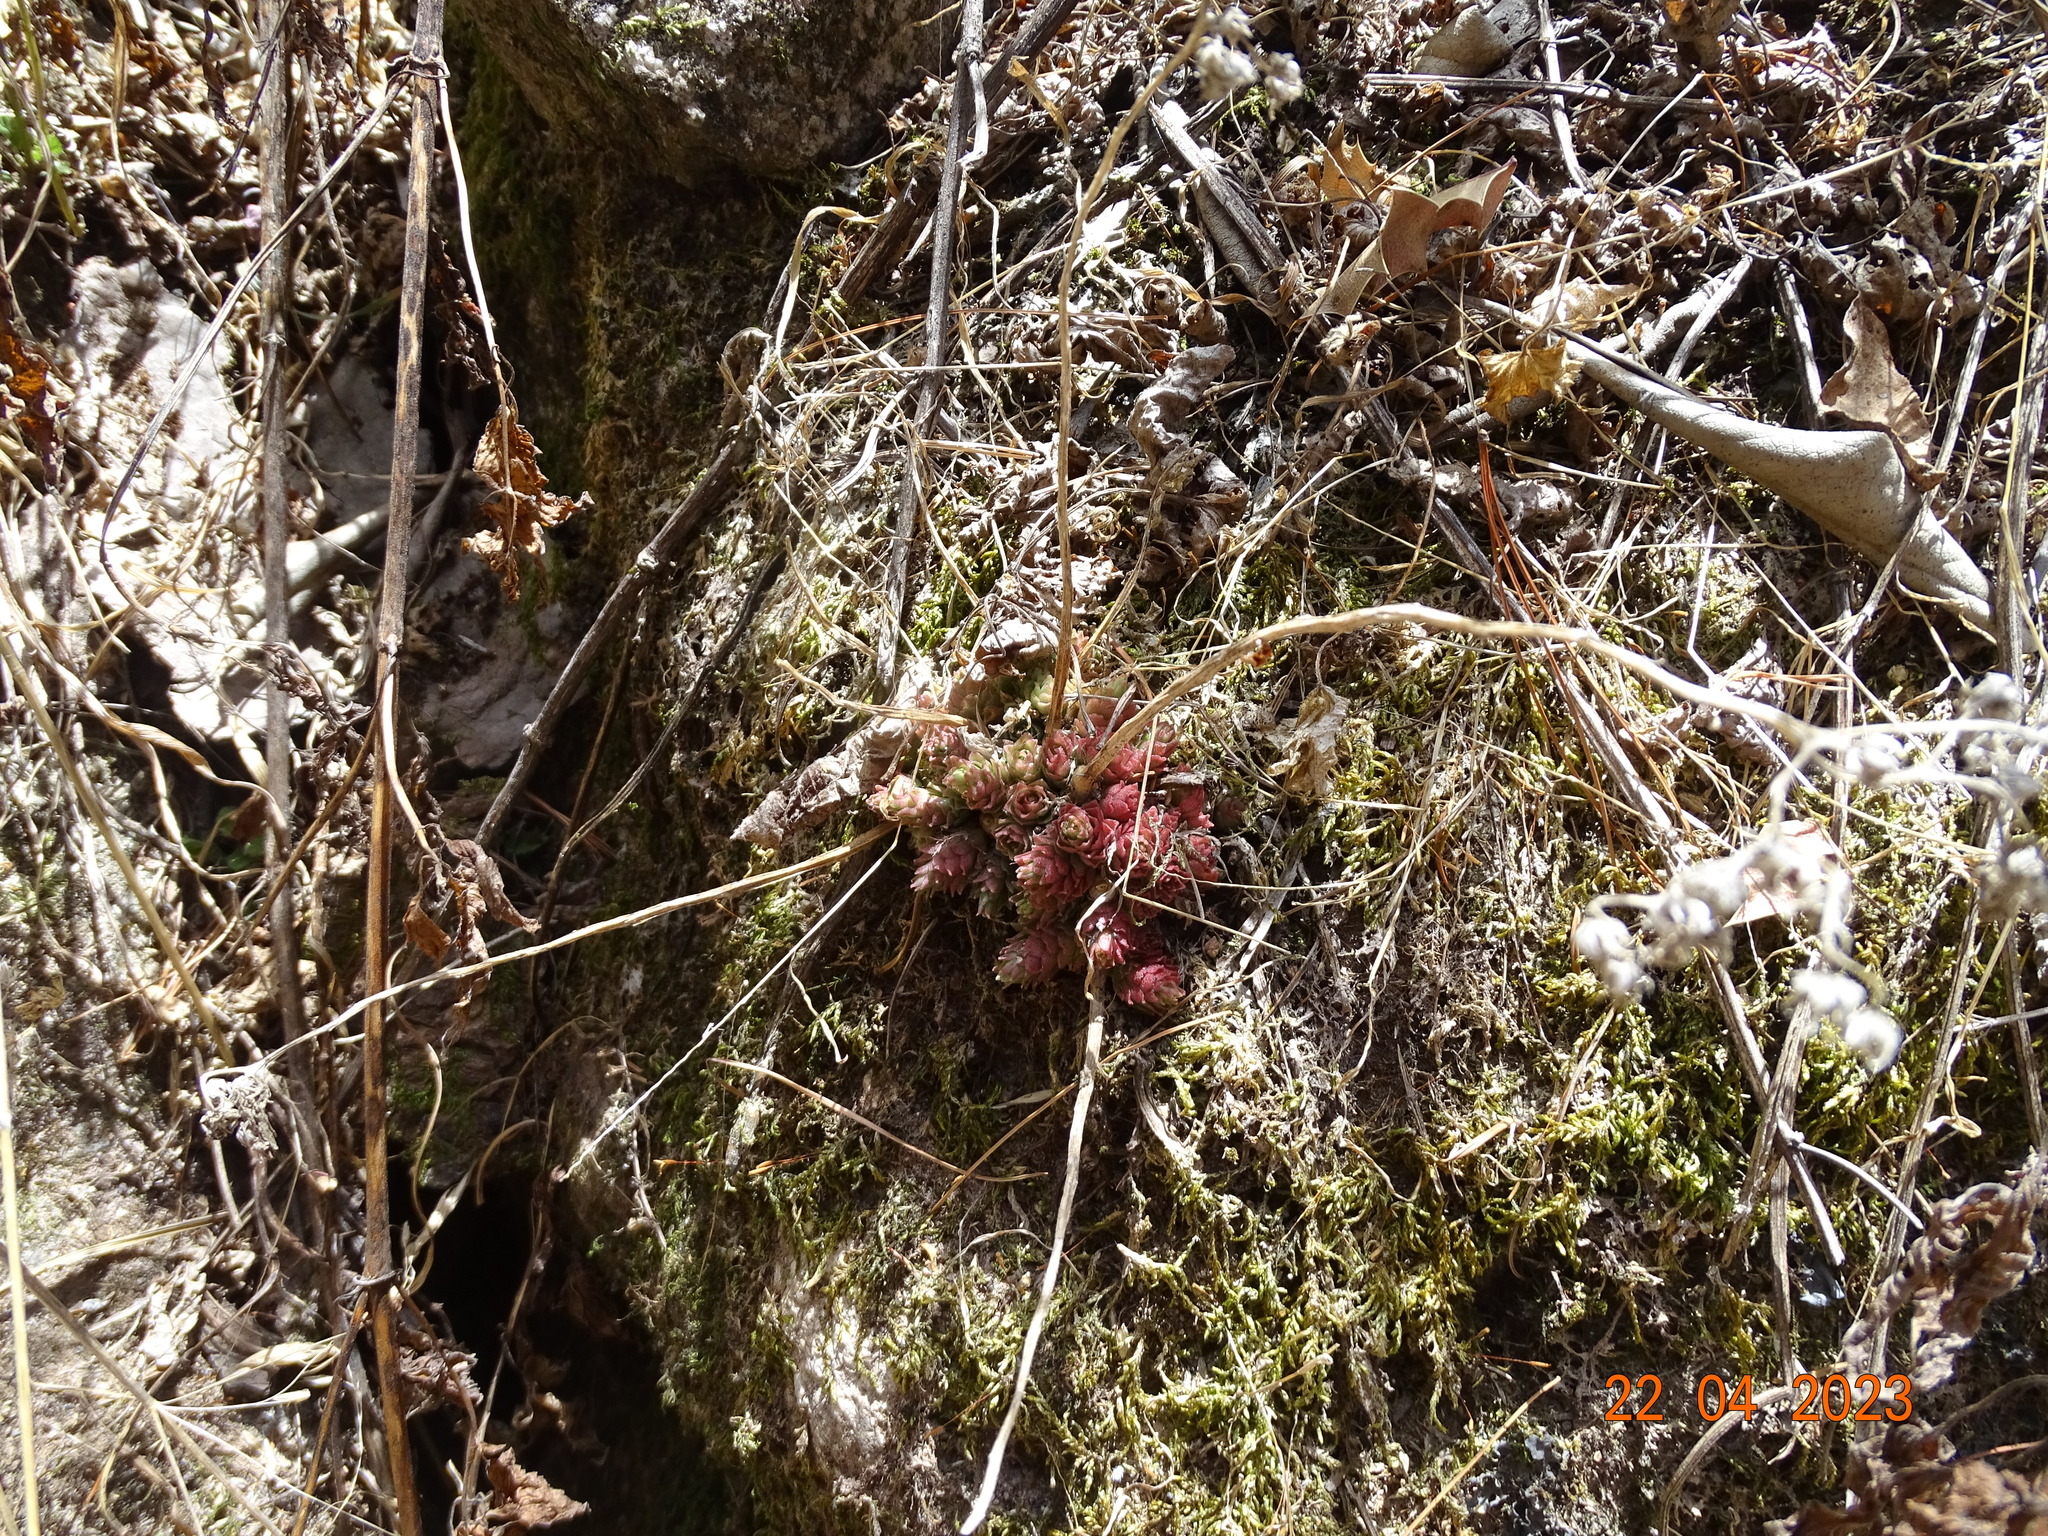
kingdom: Plantae
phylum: Tracheophyta
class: Magnoliopsida
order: Saxifragales
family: Crassulaceae
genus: Sedum
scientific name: Sedum kristenii
